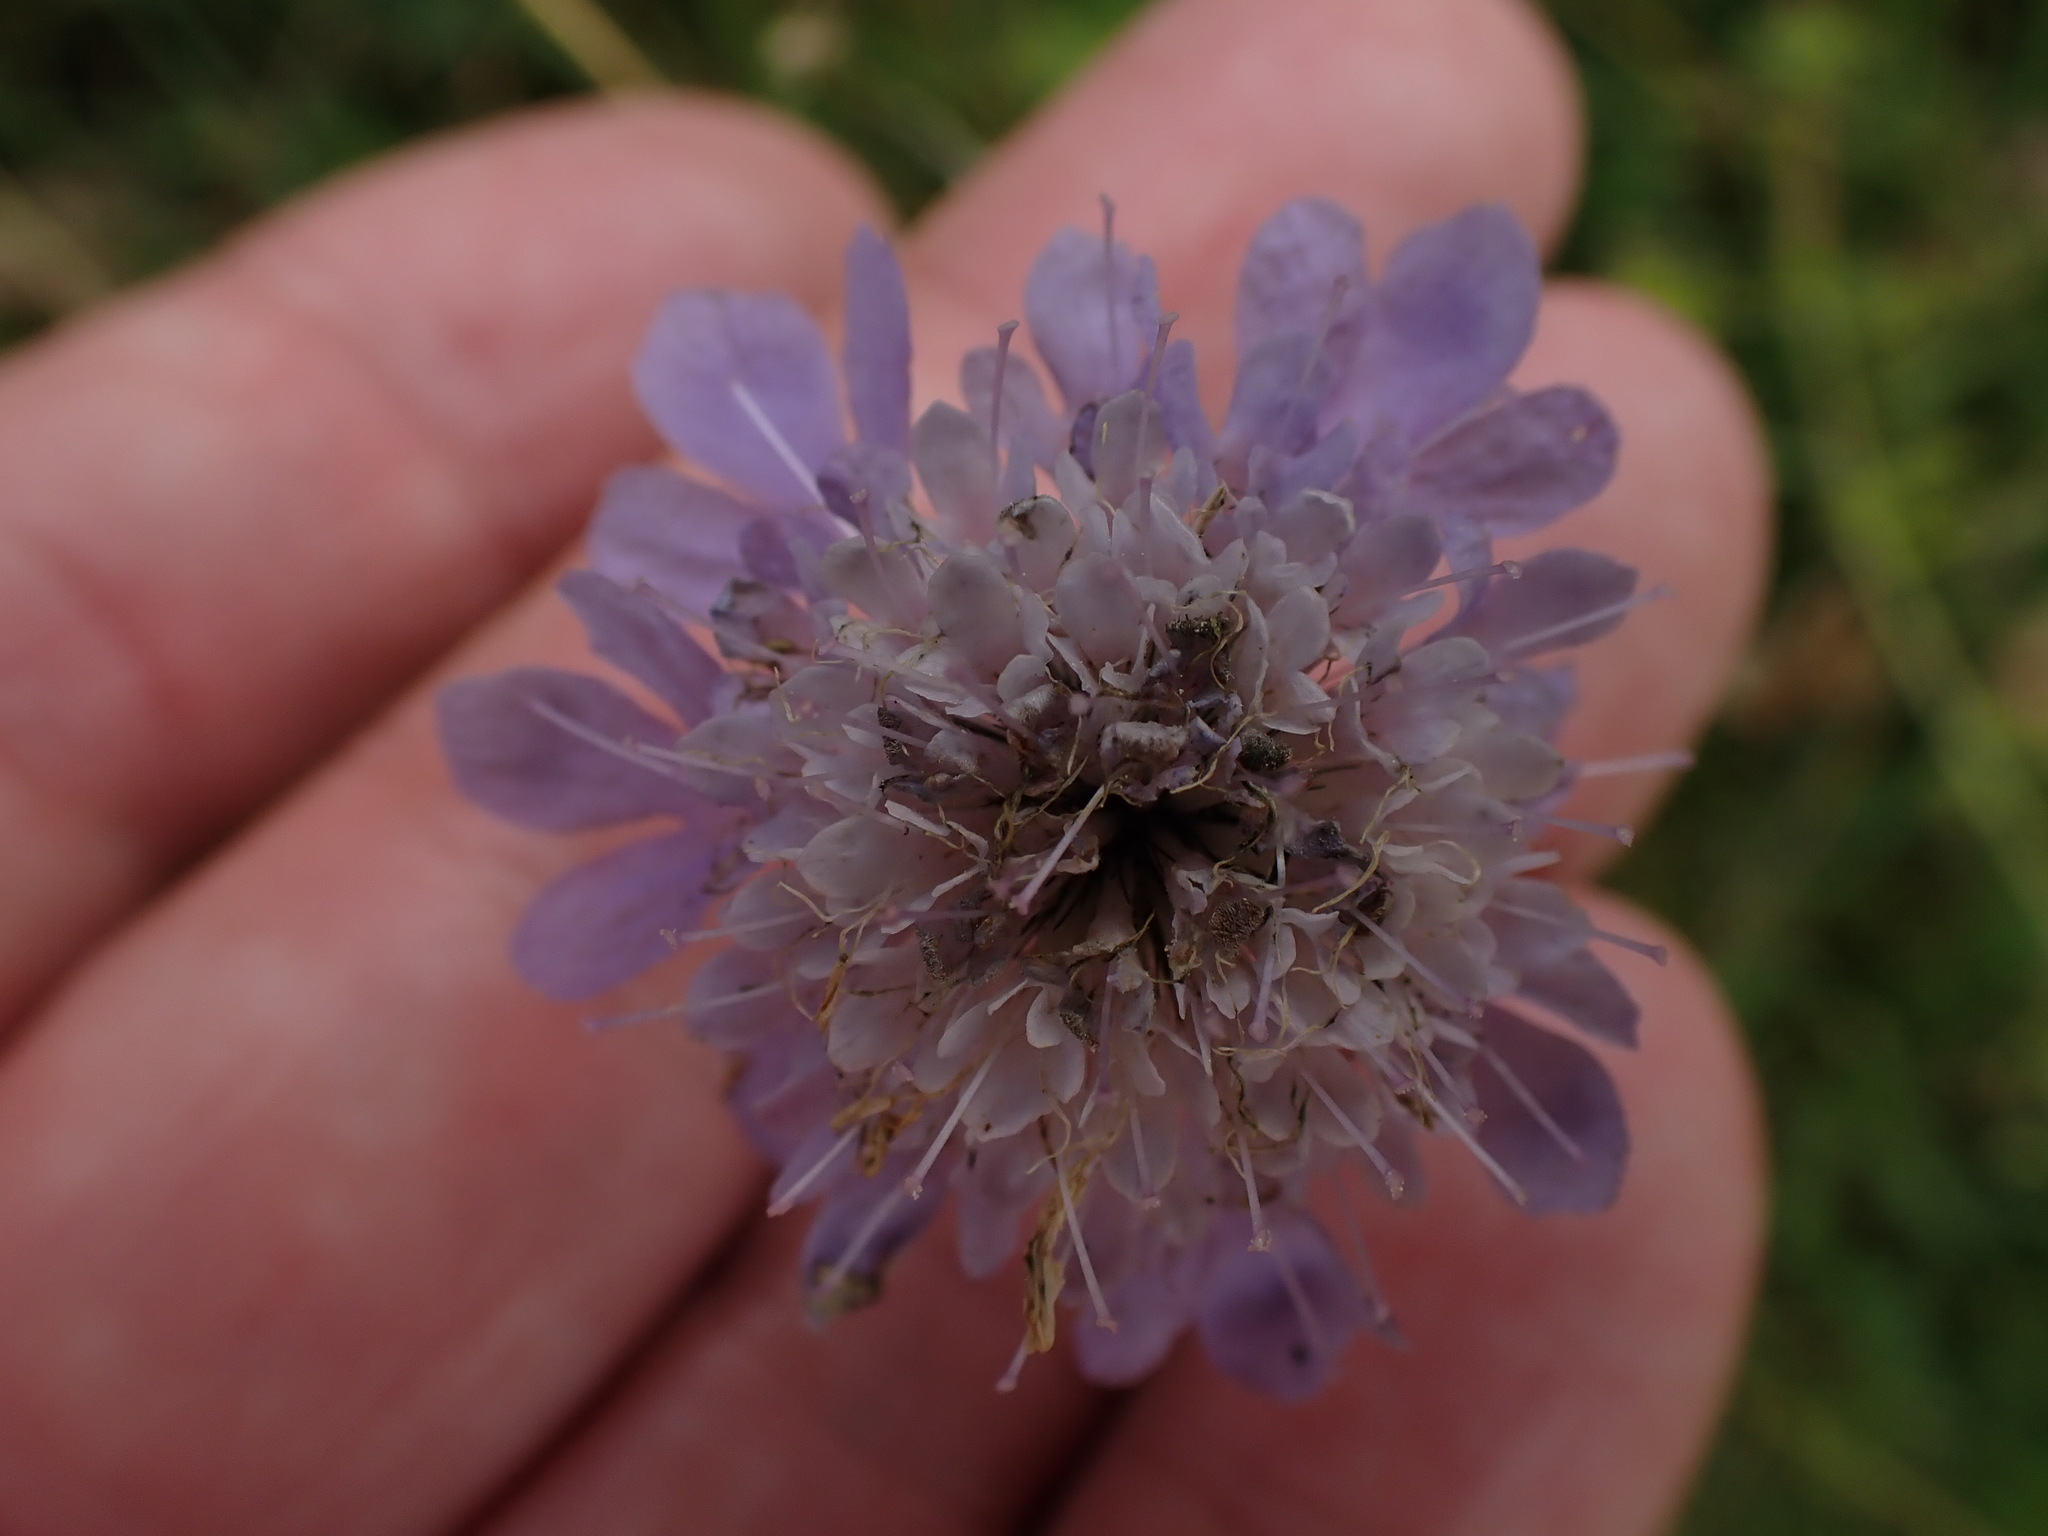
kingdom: Plantae
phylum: Tracheophyta
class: Magnoliopsida
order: Dipsacales
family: Caprifoliaceae
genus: Scabiosa
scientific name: Scabiosa columbaria
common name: Small scabious
